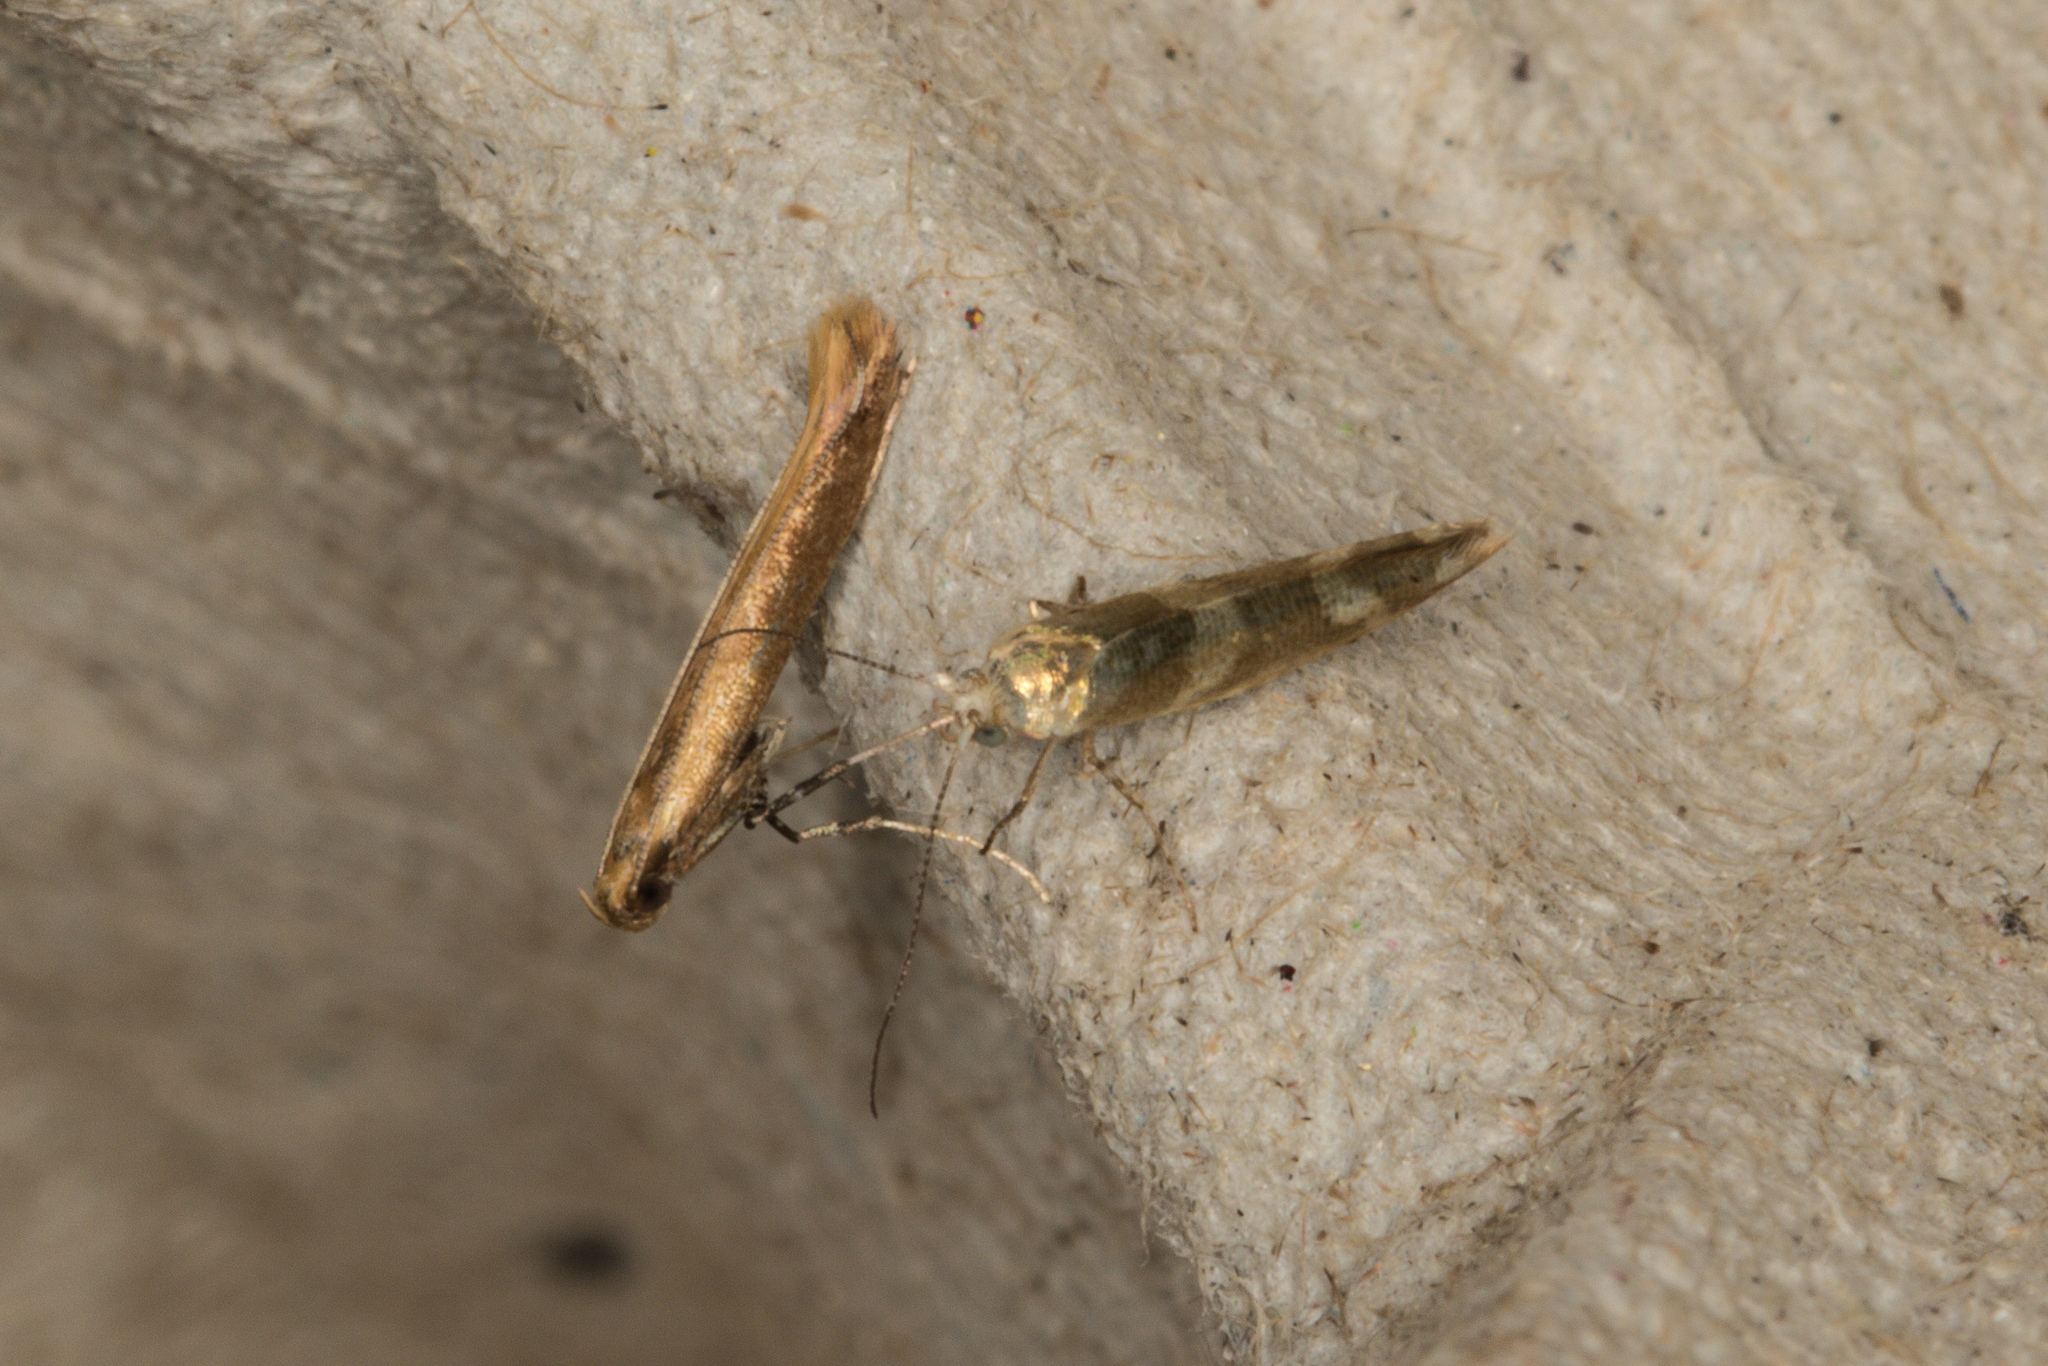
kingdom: Animalia
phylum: Arthropoda
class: Insecta
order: Lepidoptera
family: Argyresthiidae
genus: Argyresthia
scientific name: Argyresthia goedartella
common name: Golden argent
